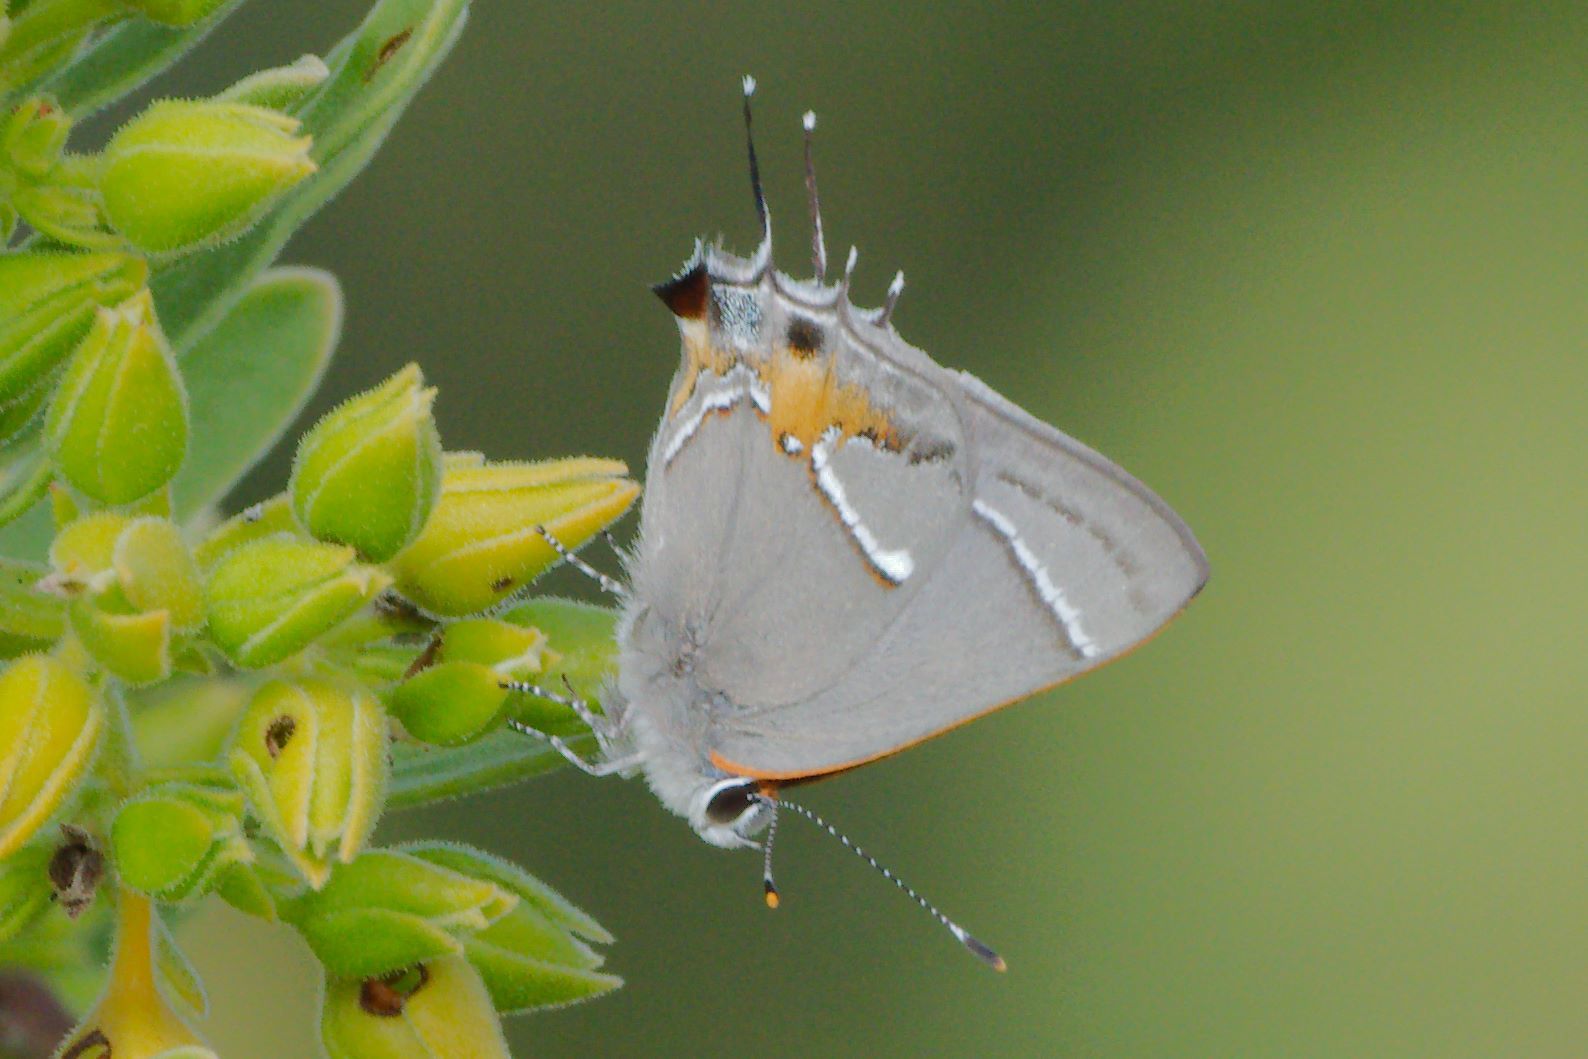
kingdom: Animalia
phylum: Arthropoda
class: Insecta
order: Lepidoptera
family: Lycaenidae
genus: Thecla
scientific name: Thecla martialis
